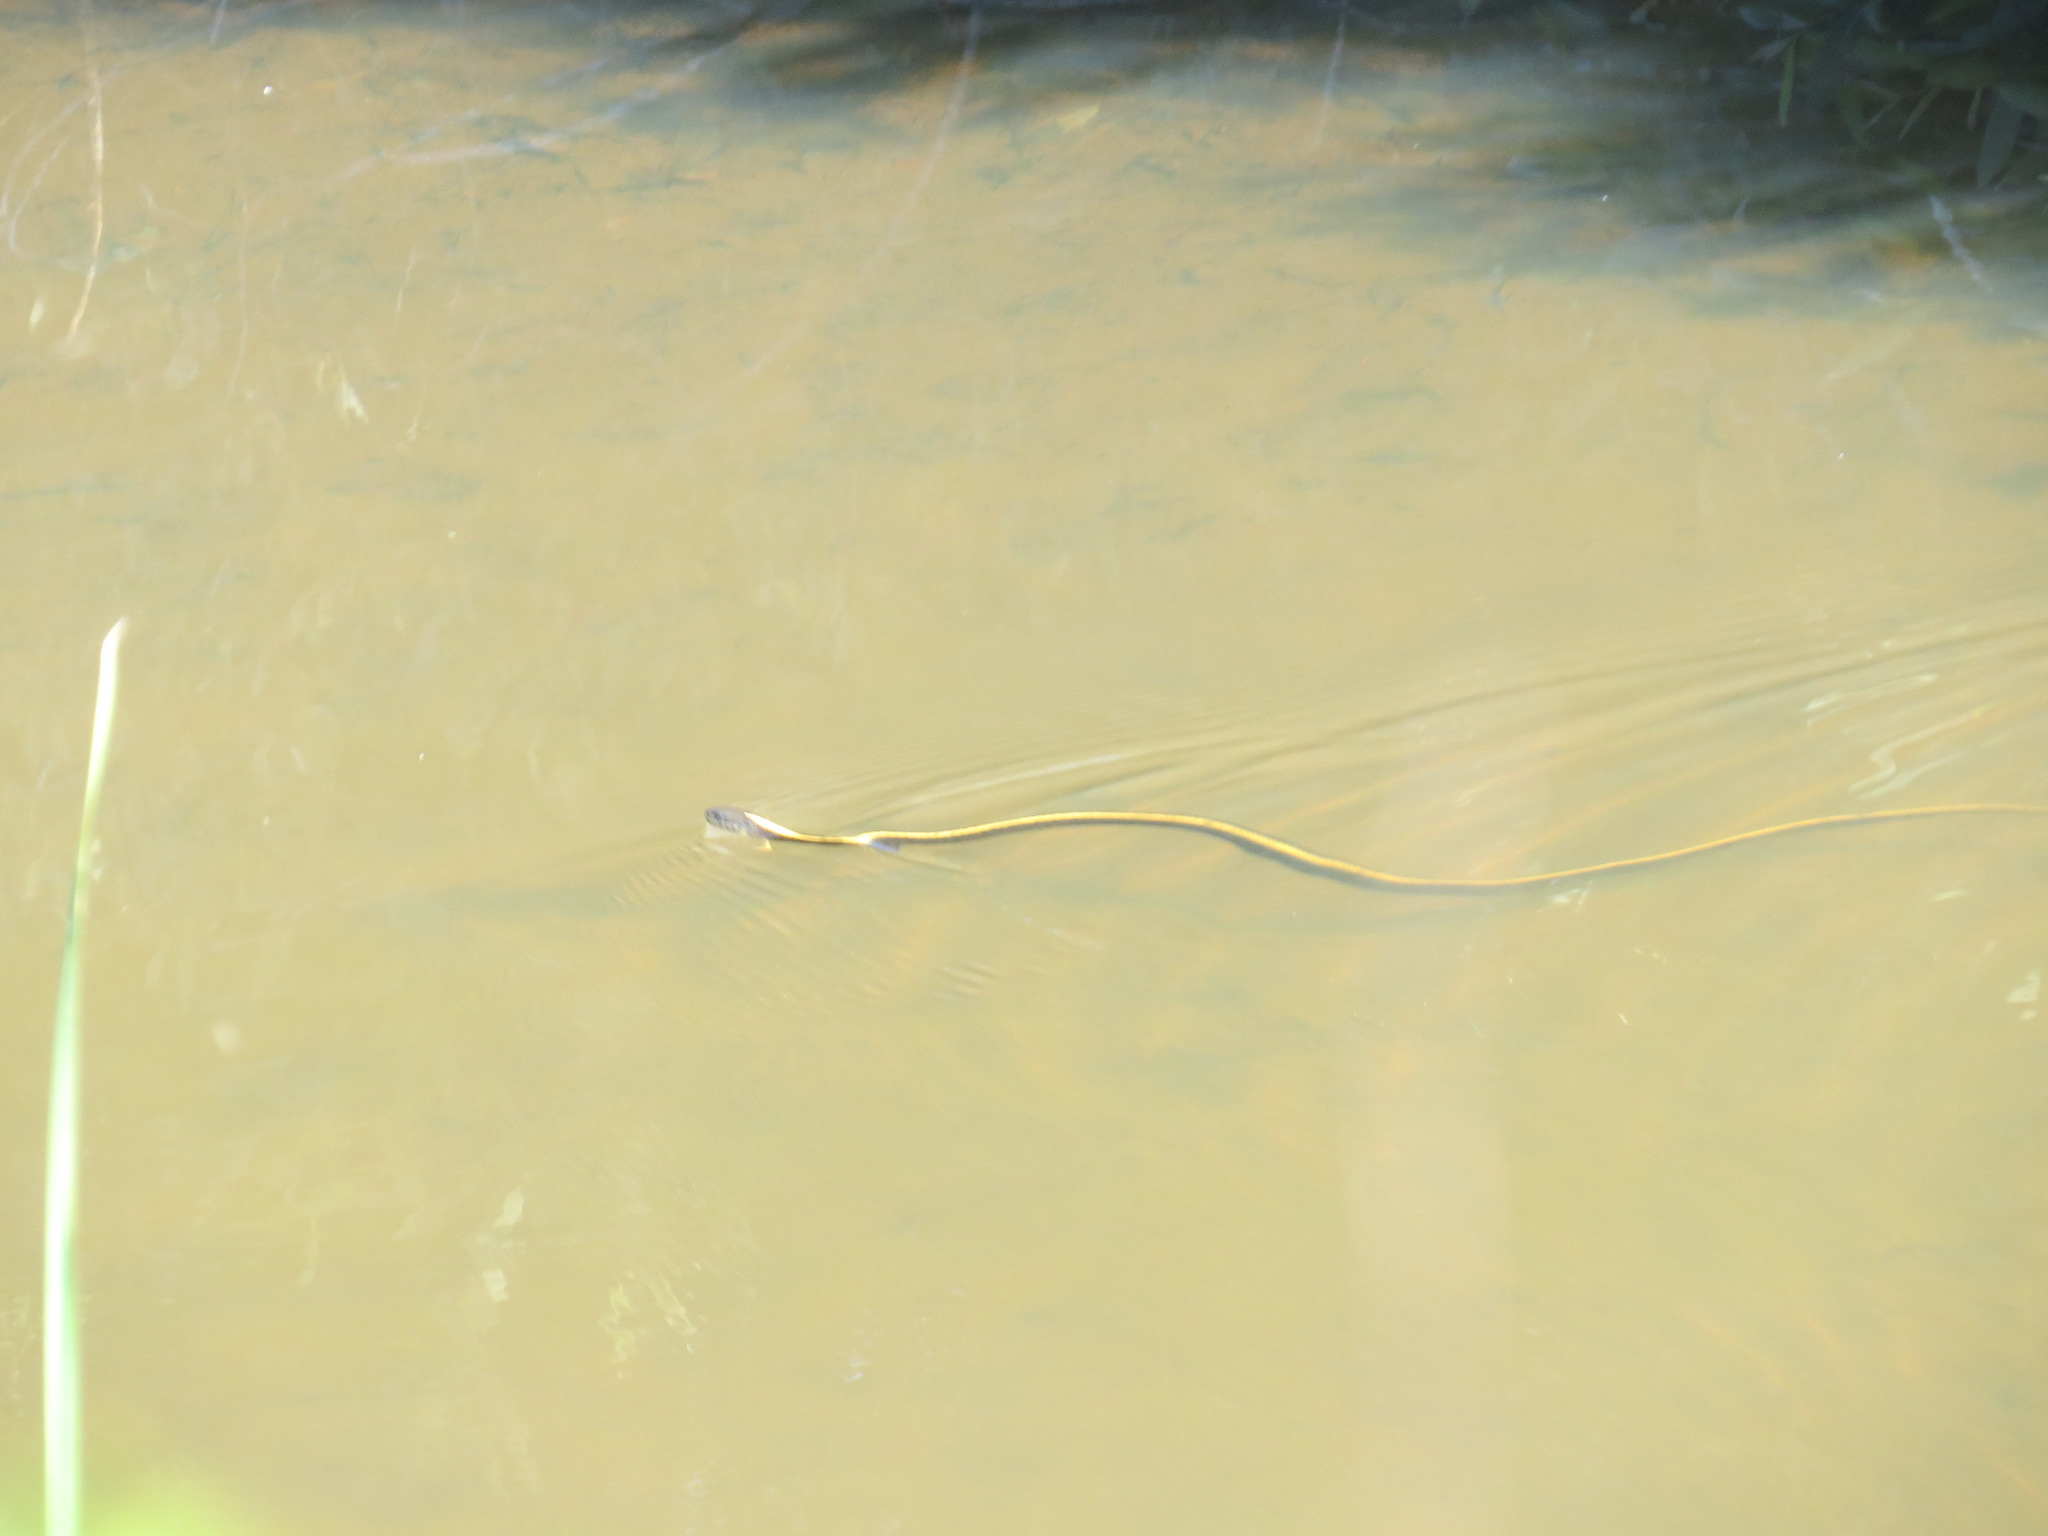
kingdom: Animalia
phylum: Chordata
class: Squamata
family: Colubridae
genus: Thamnophis
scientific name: Thamnophis atratus
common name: Pacific coast aquatic garter snake
